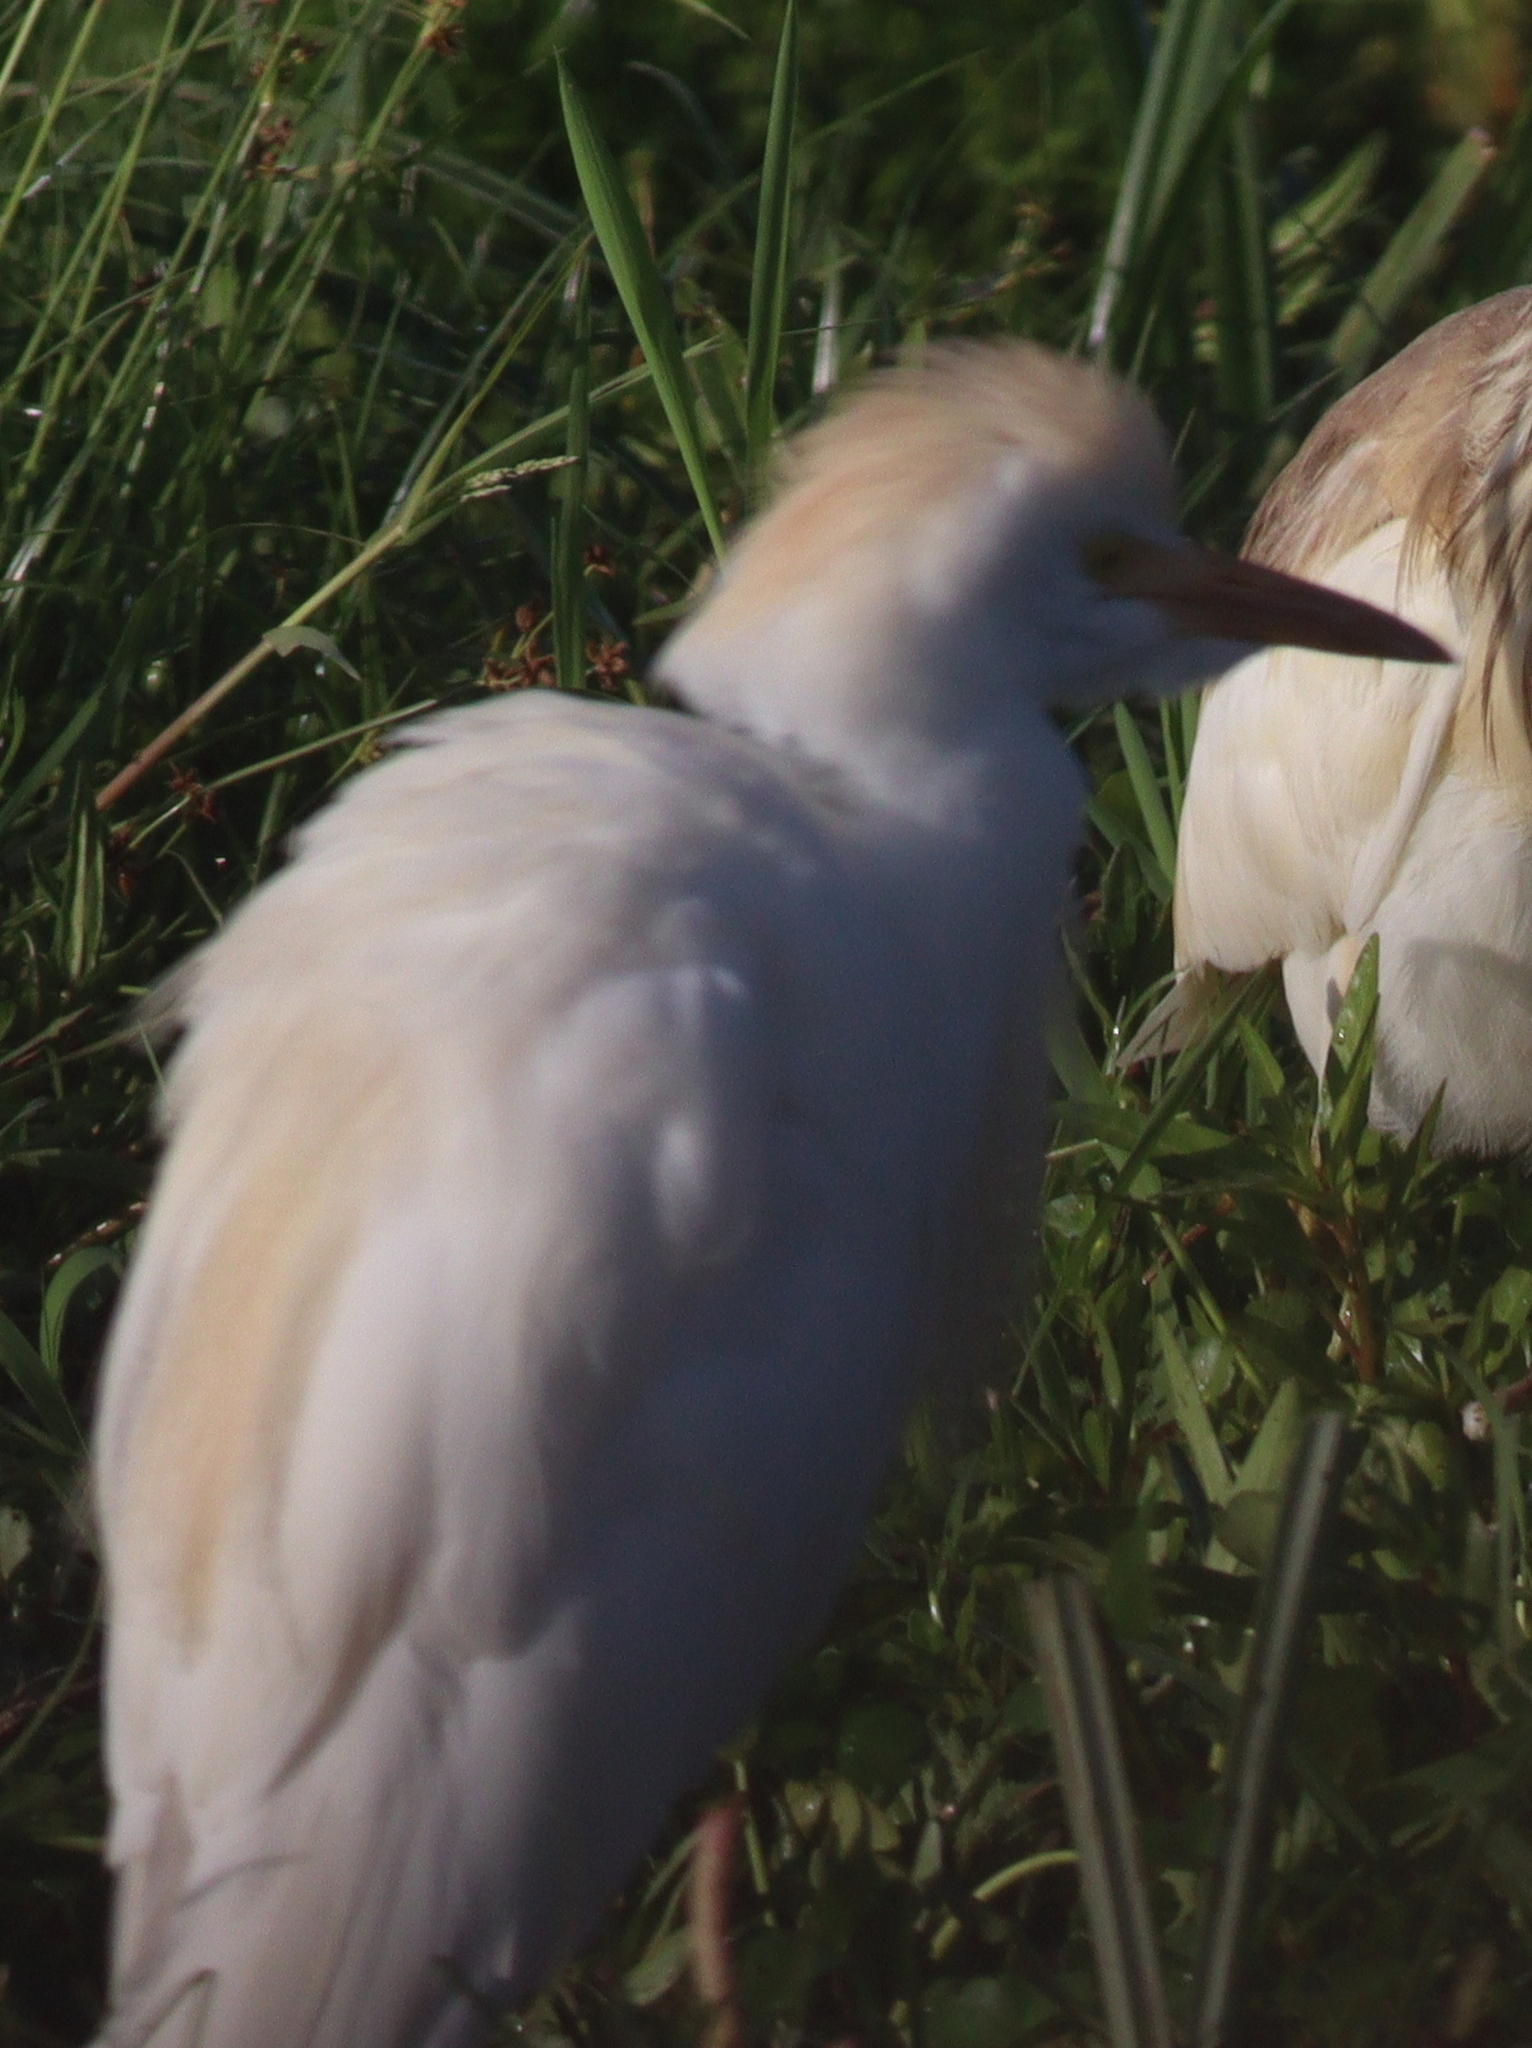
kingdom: Animalia
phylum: Chordata
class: Aves
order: Pelecaniformes
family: Ardeidae
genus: Bubulcus
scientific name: Bubulcus ibis
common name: Cattle egret
